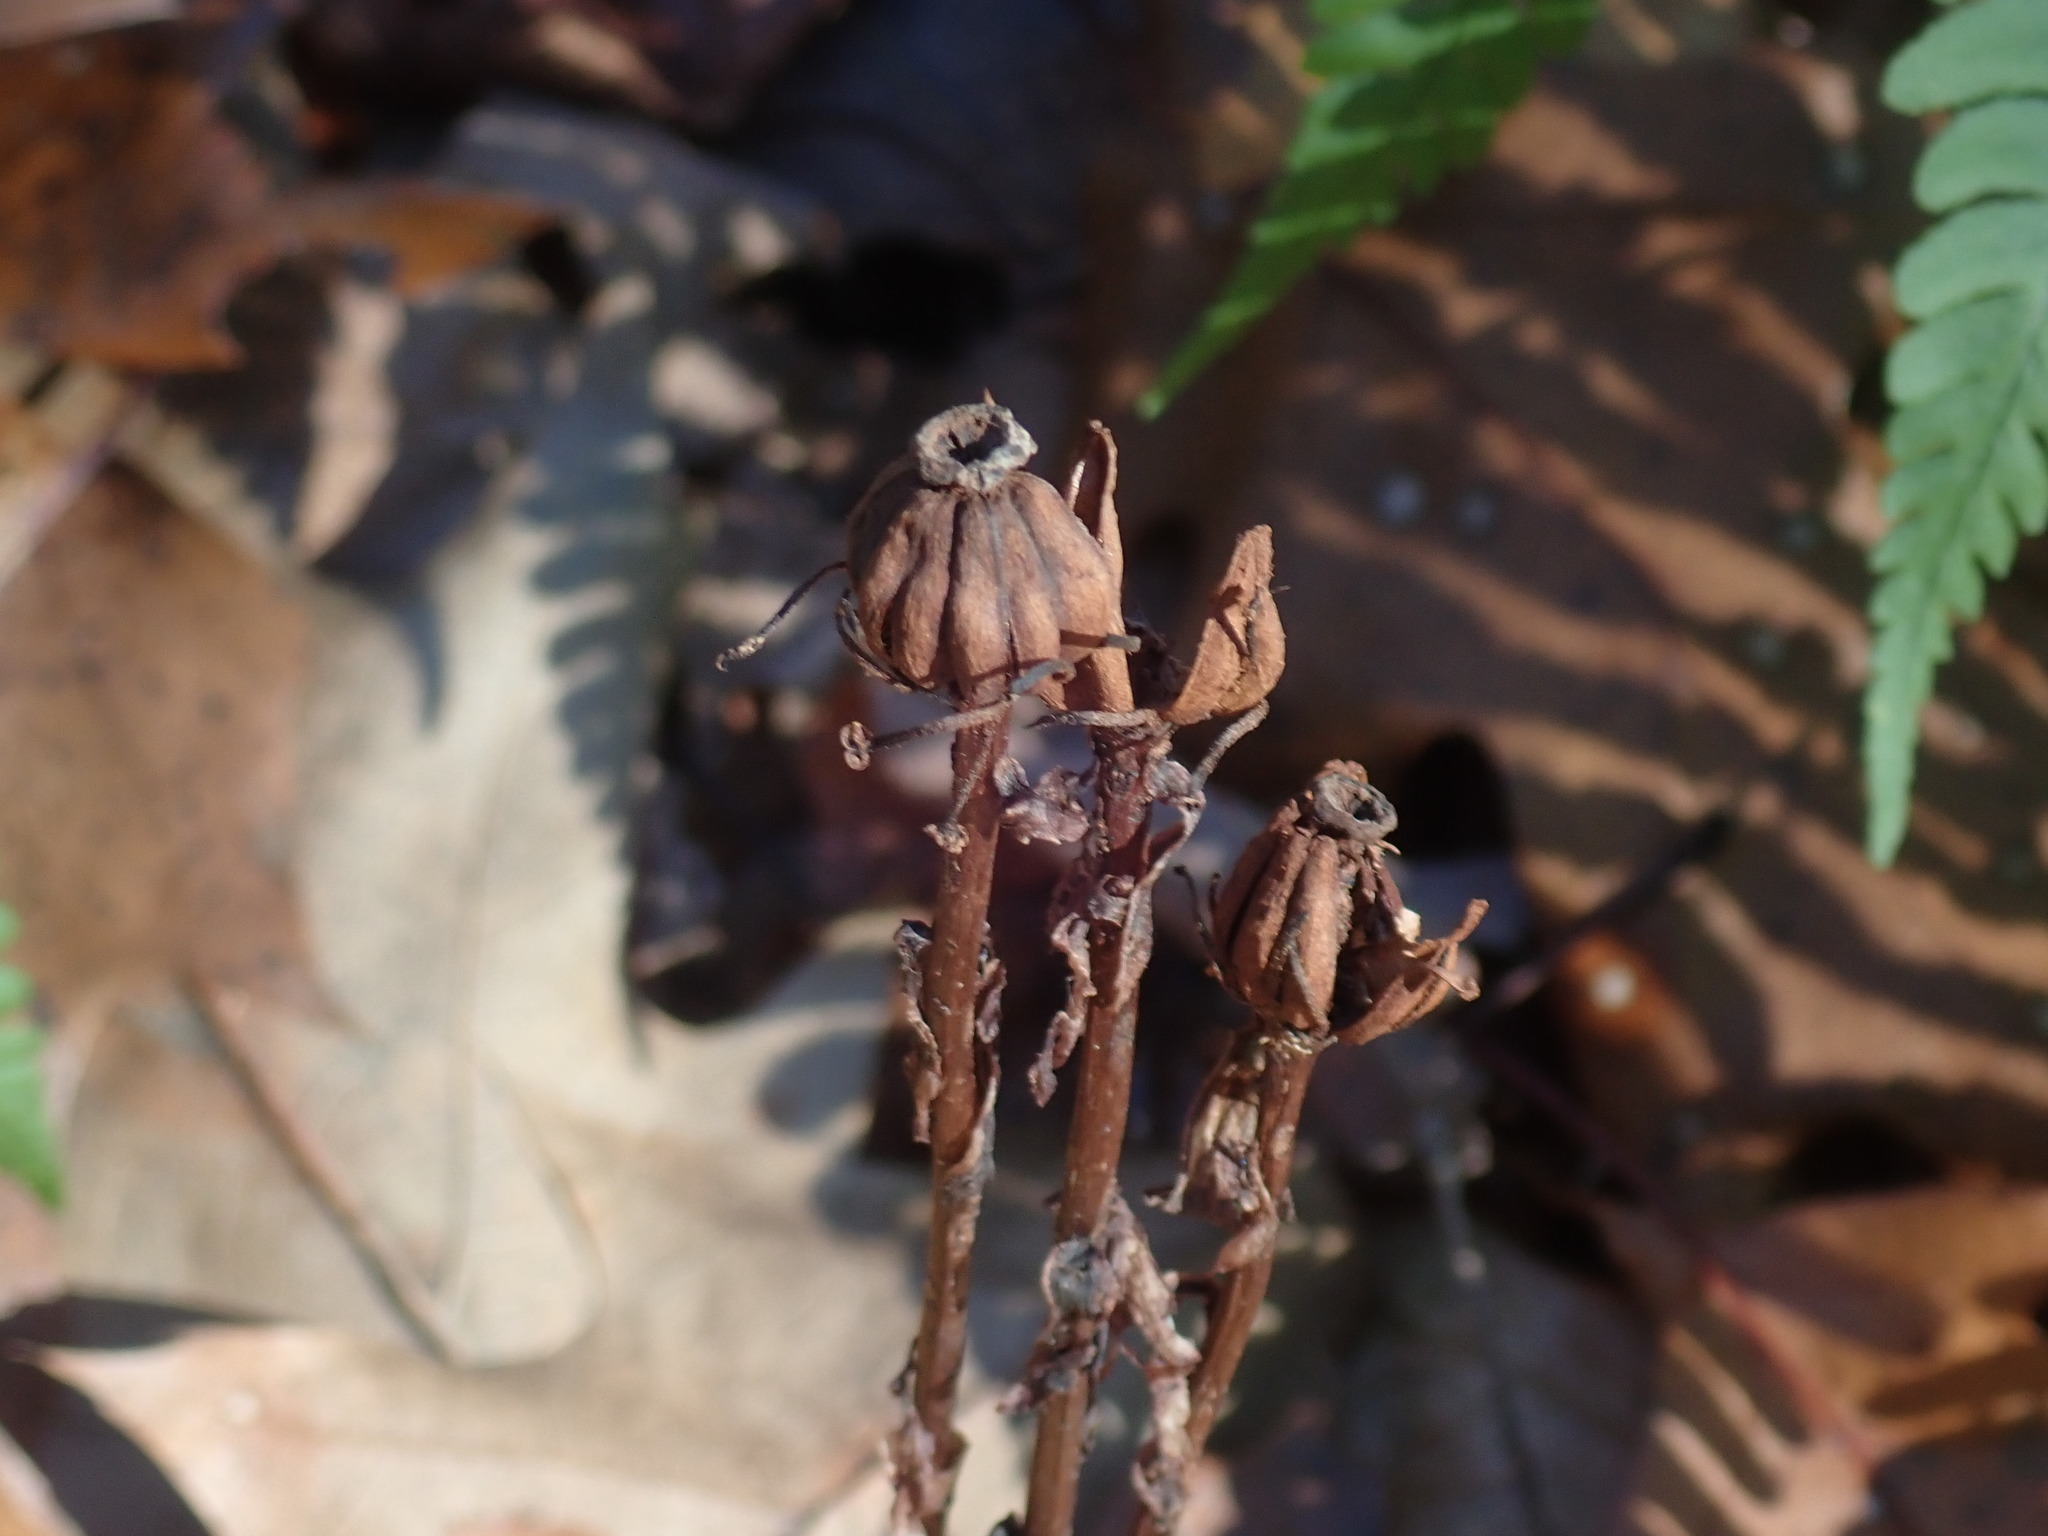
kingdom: Plantae
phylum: Tracheophyta
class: Magnoliopsida
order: Ericales
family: Ericaceae
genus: Monotropa
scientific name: Monotropa uniflora
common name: Convulsion root
